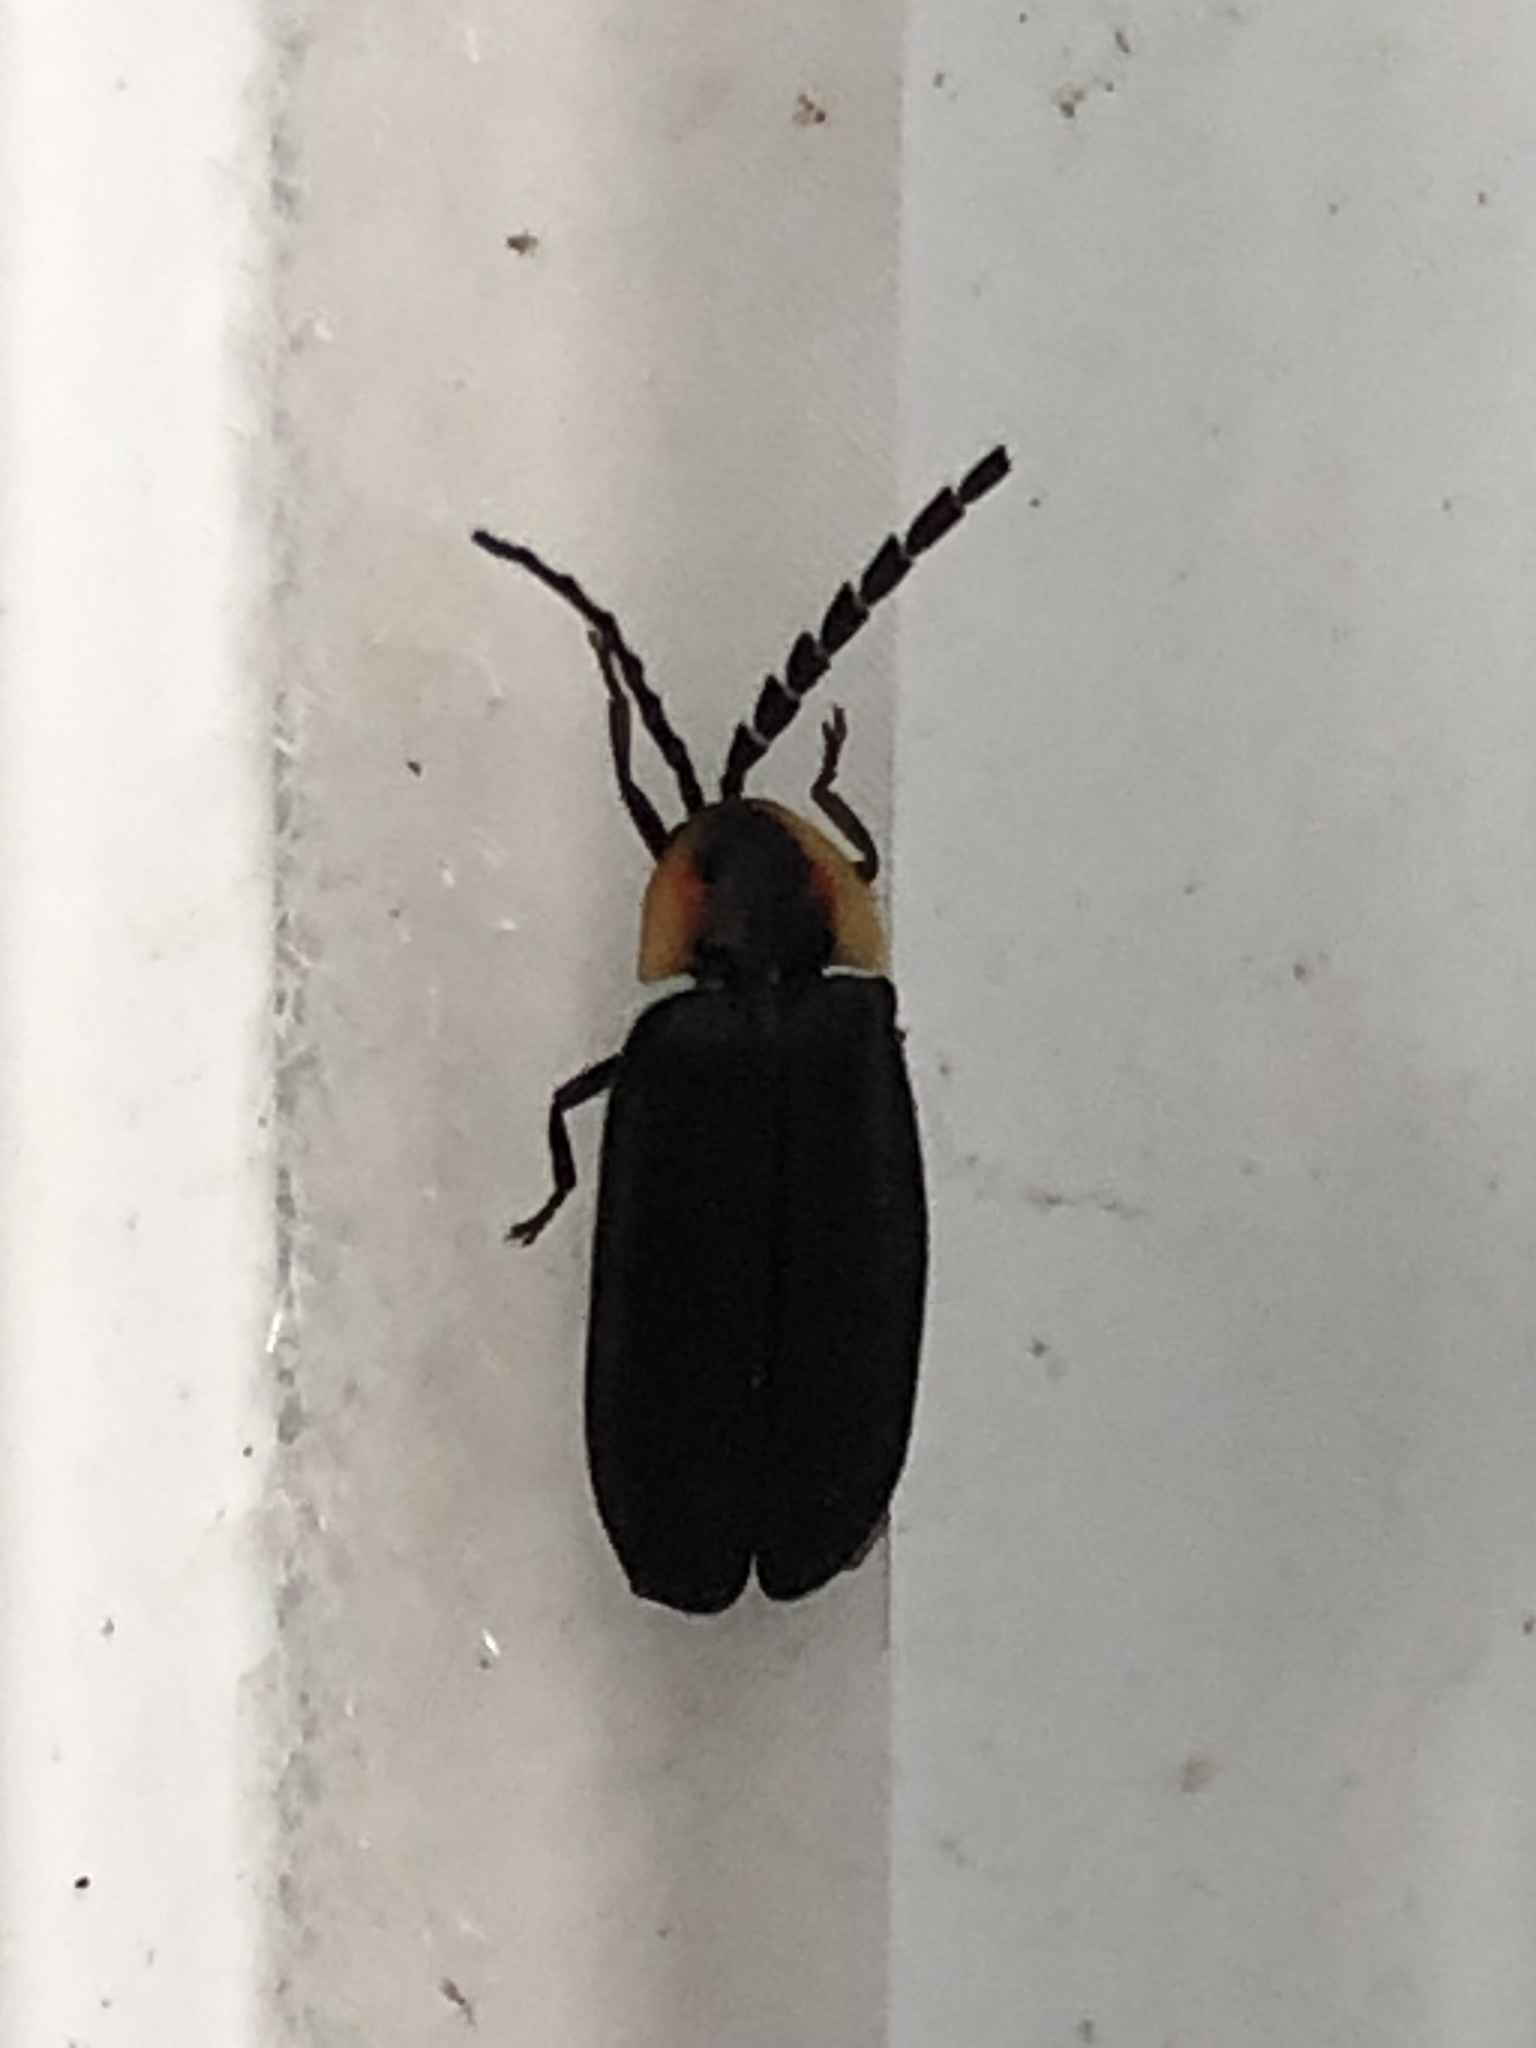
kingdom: Animalia
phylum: Arthropoda
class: Insecta
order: Coleoptera
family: Lampyridae
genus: Lucidota
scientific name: Lucidota atra
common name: Black firefly
